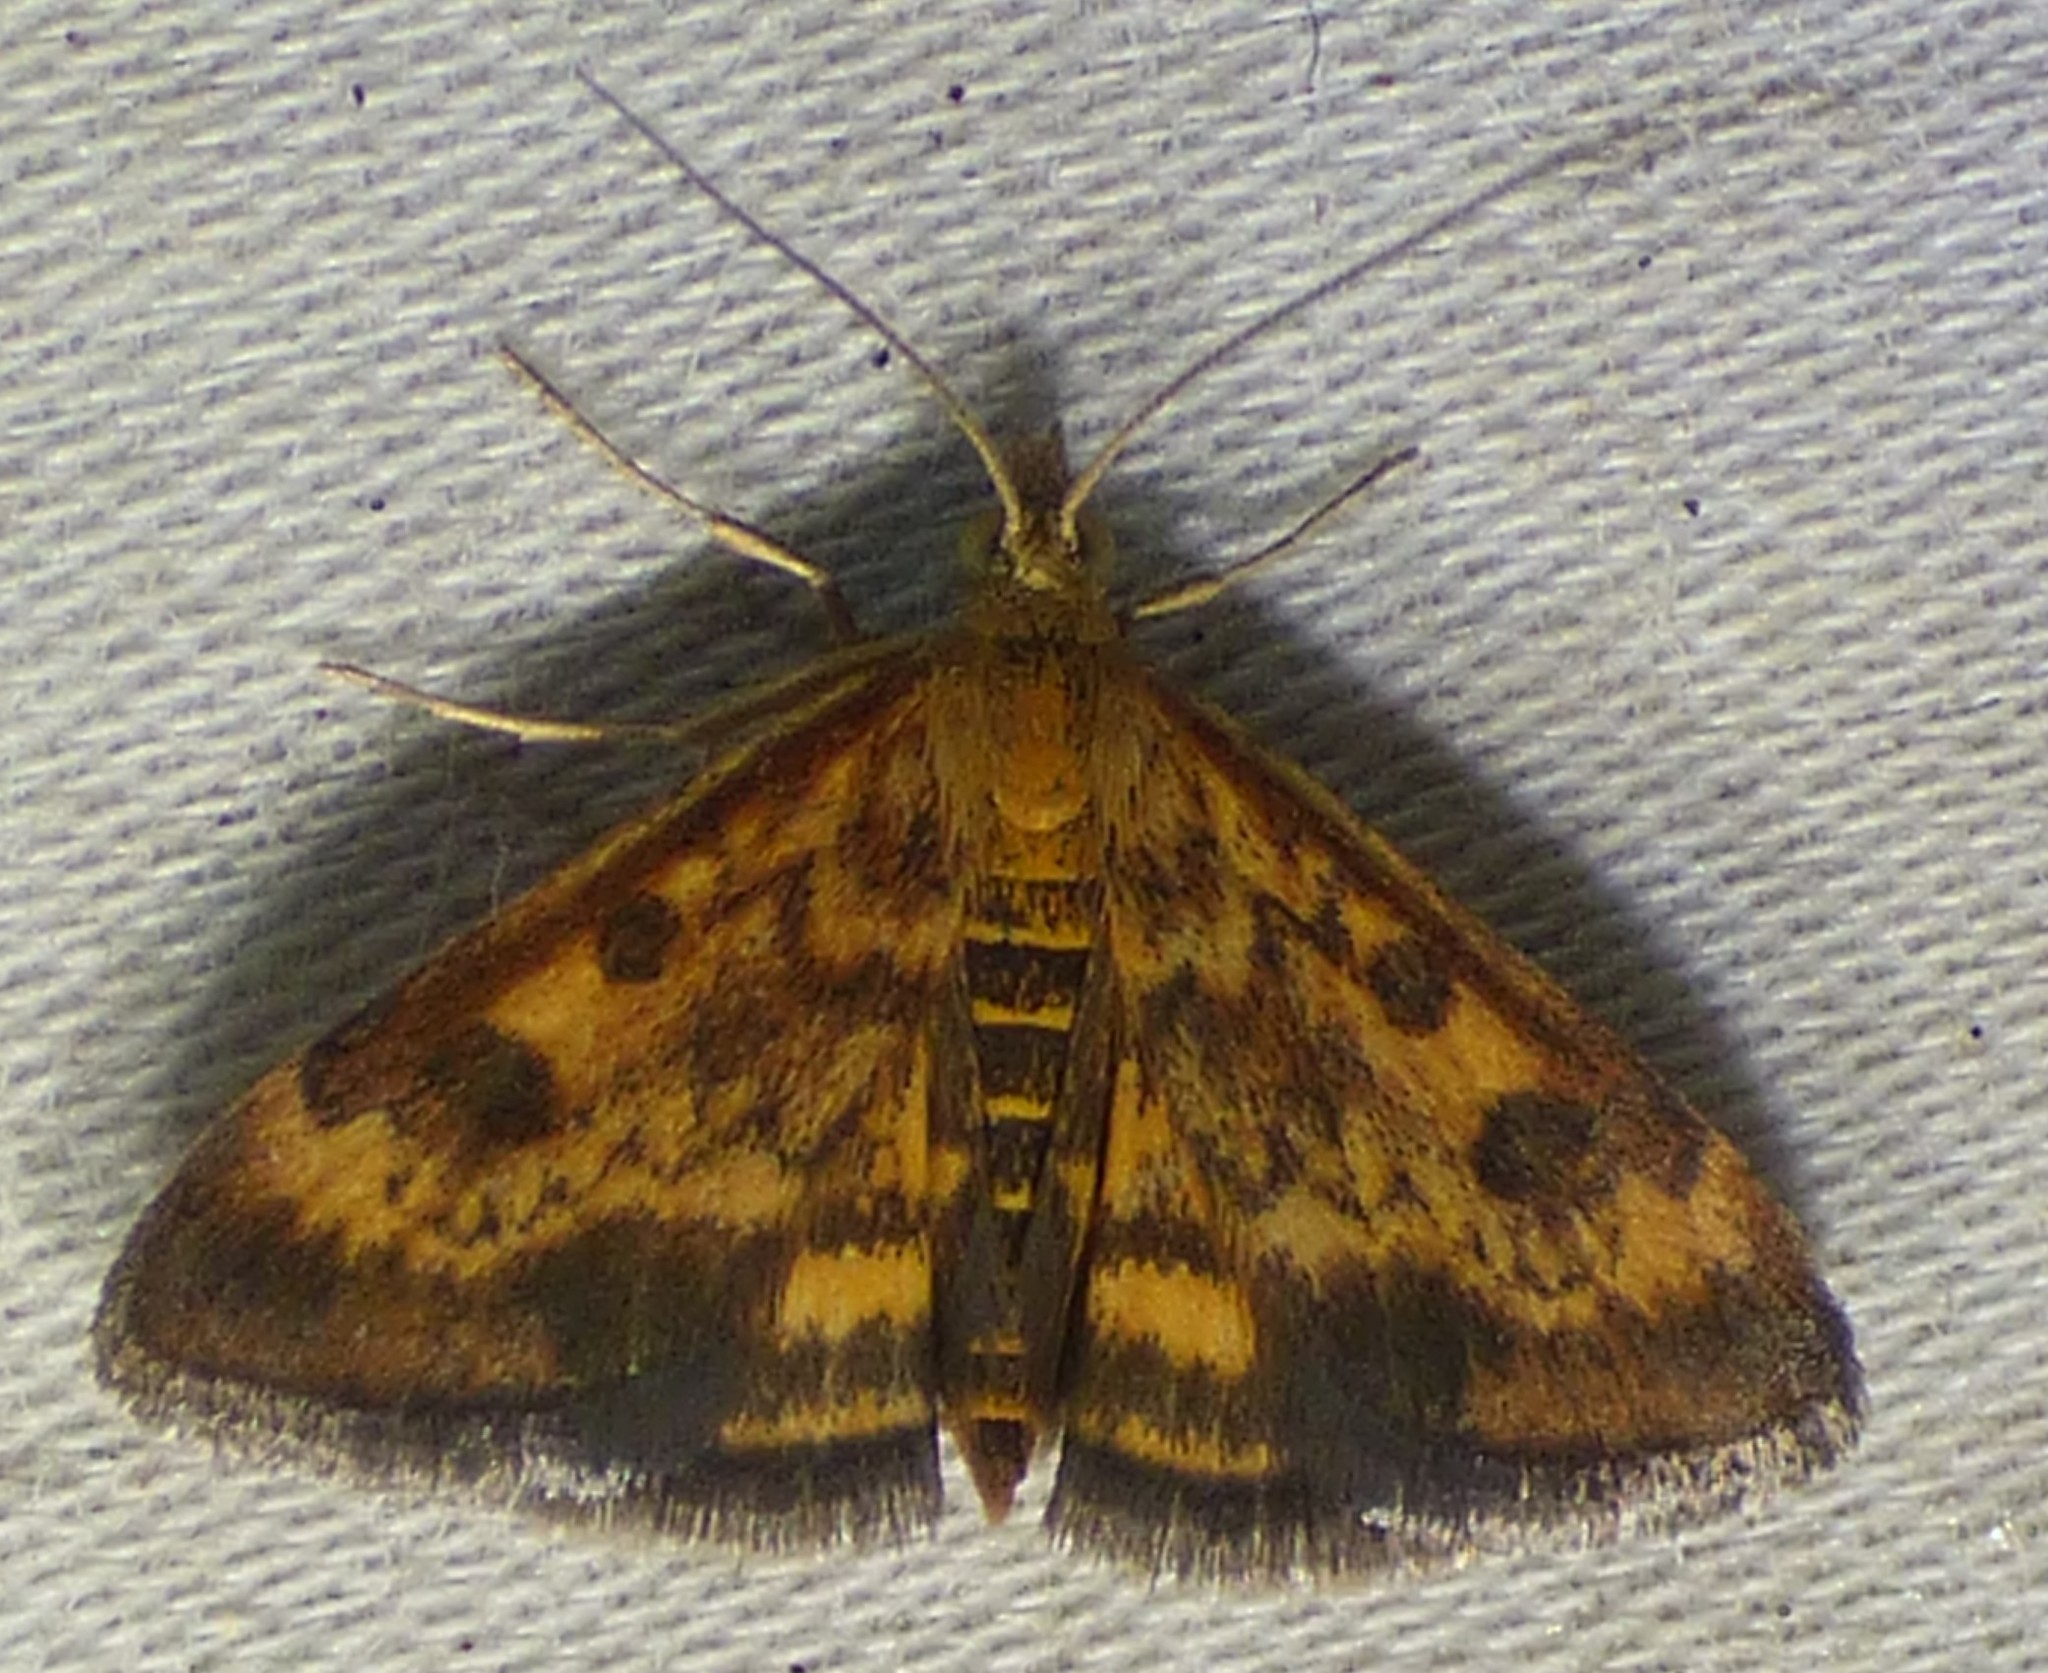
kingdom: Animalia
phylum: Arthropoda
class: Insecta
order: Lepidoptera
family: Crambidae
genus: Pyrausta
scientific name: Pyrausta subsequalis
